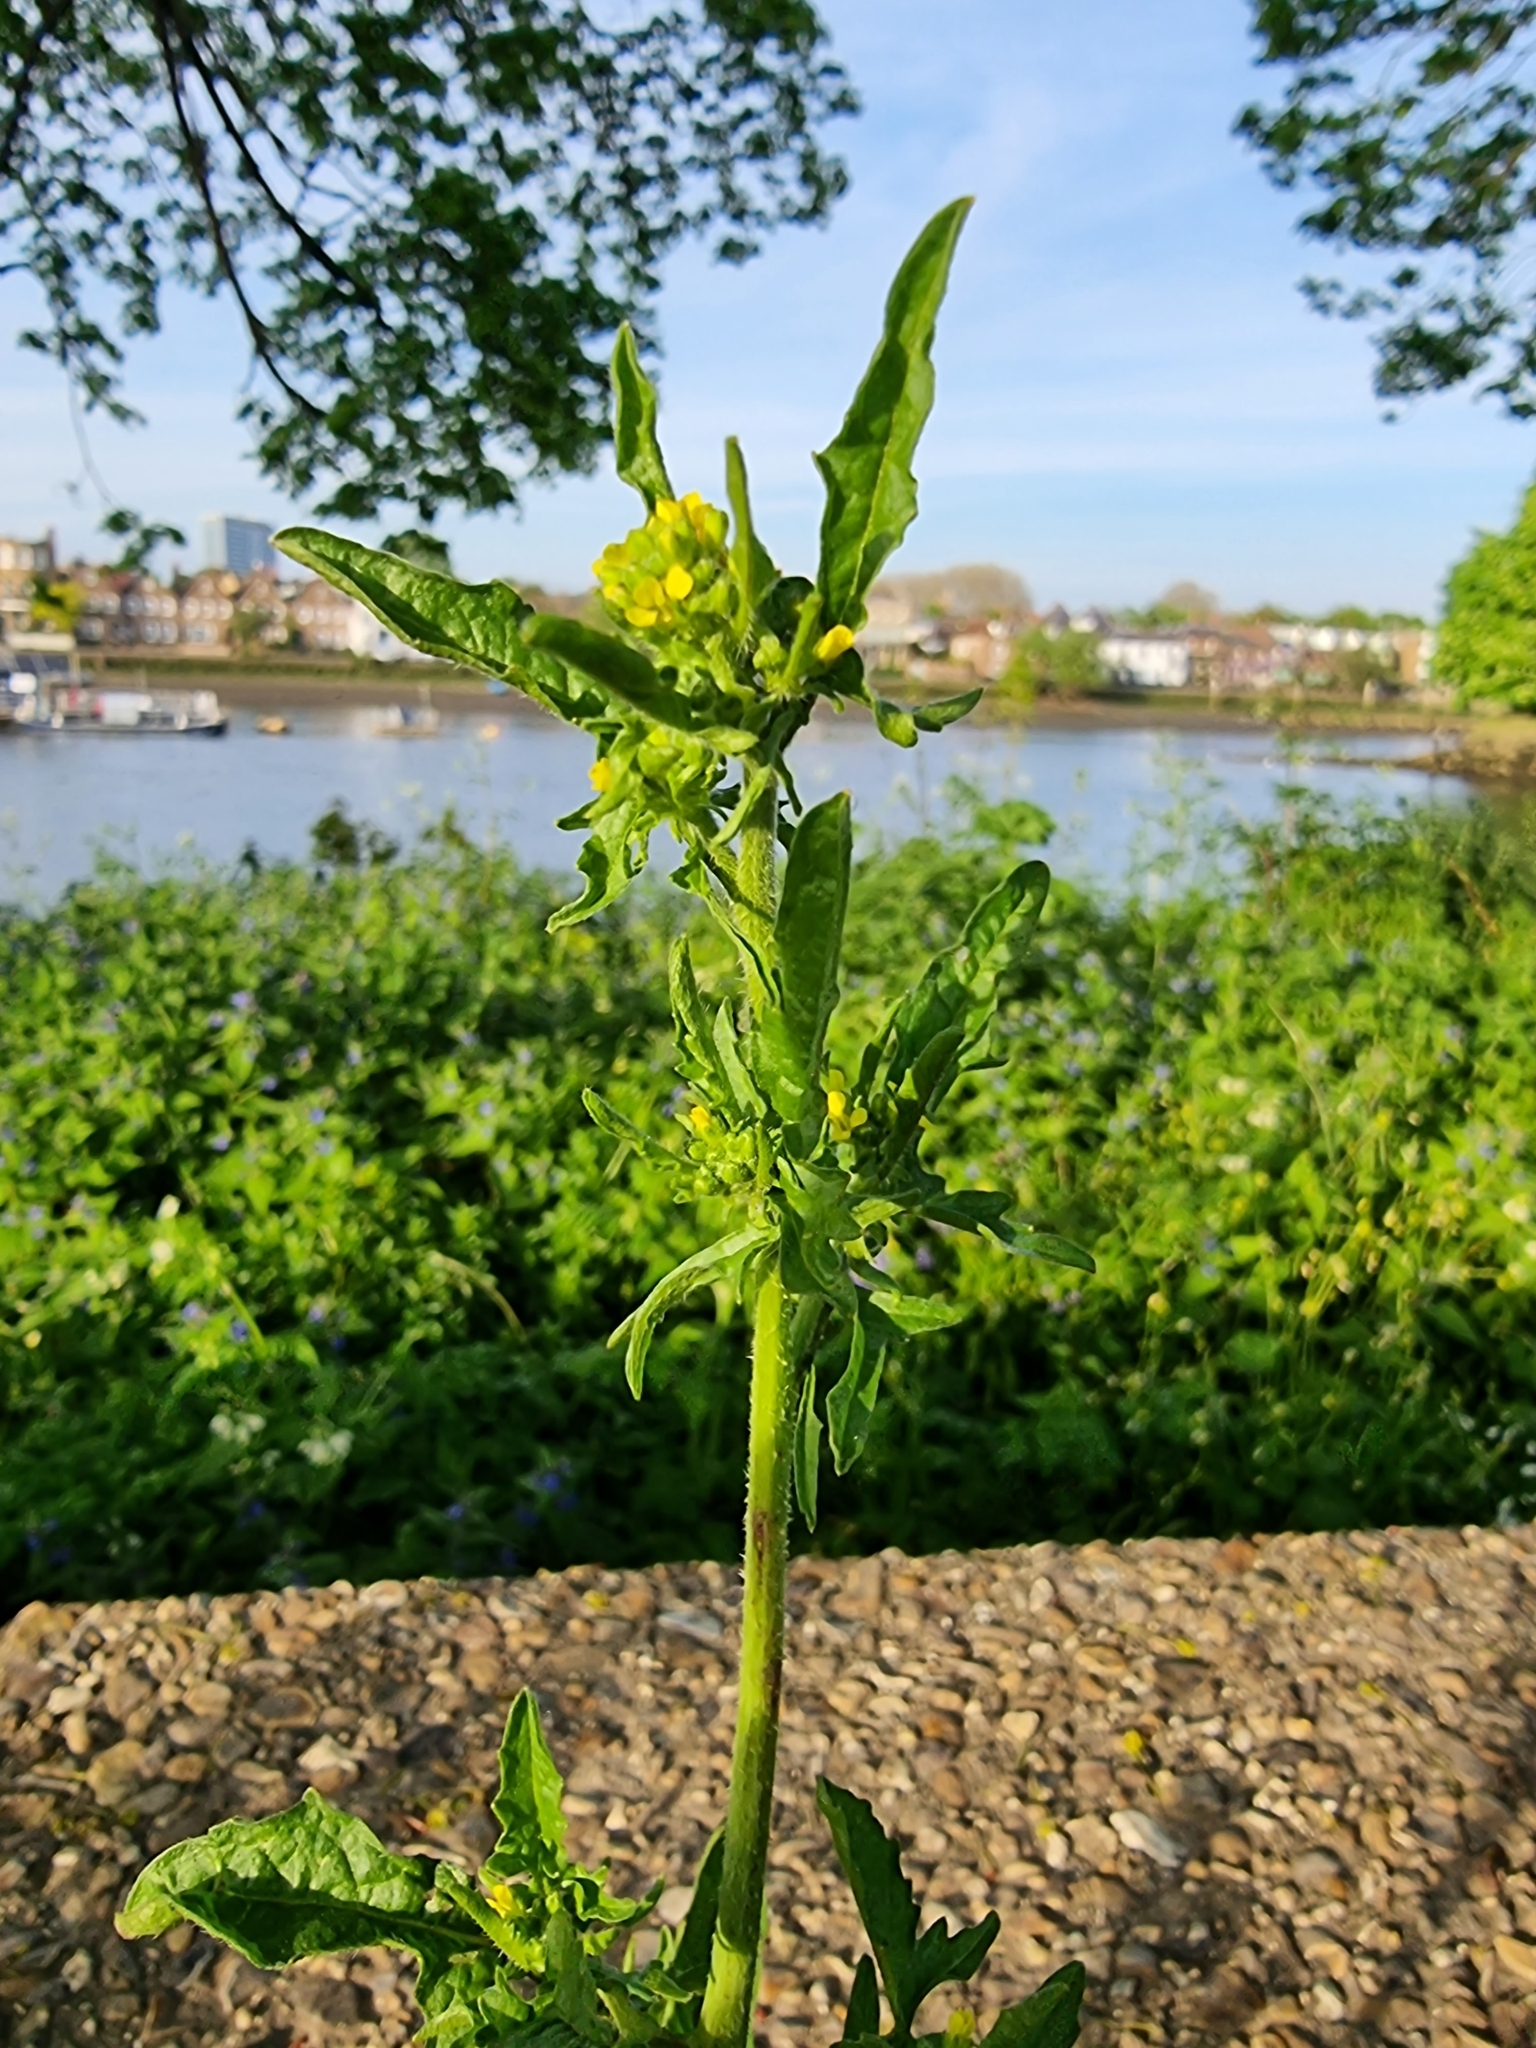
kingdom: Plantae
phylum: Tracheophyta
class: Magnoliopsida
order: Brassicales
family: Brassicaceae
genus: Sisymbrium
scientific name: Sisymbrium officinale
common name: Hedge mustard
